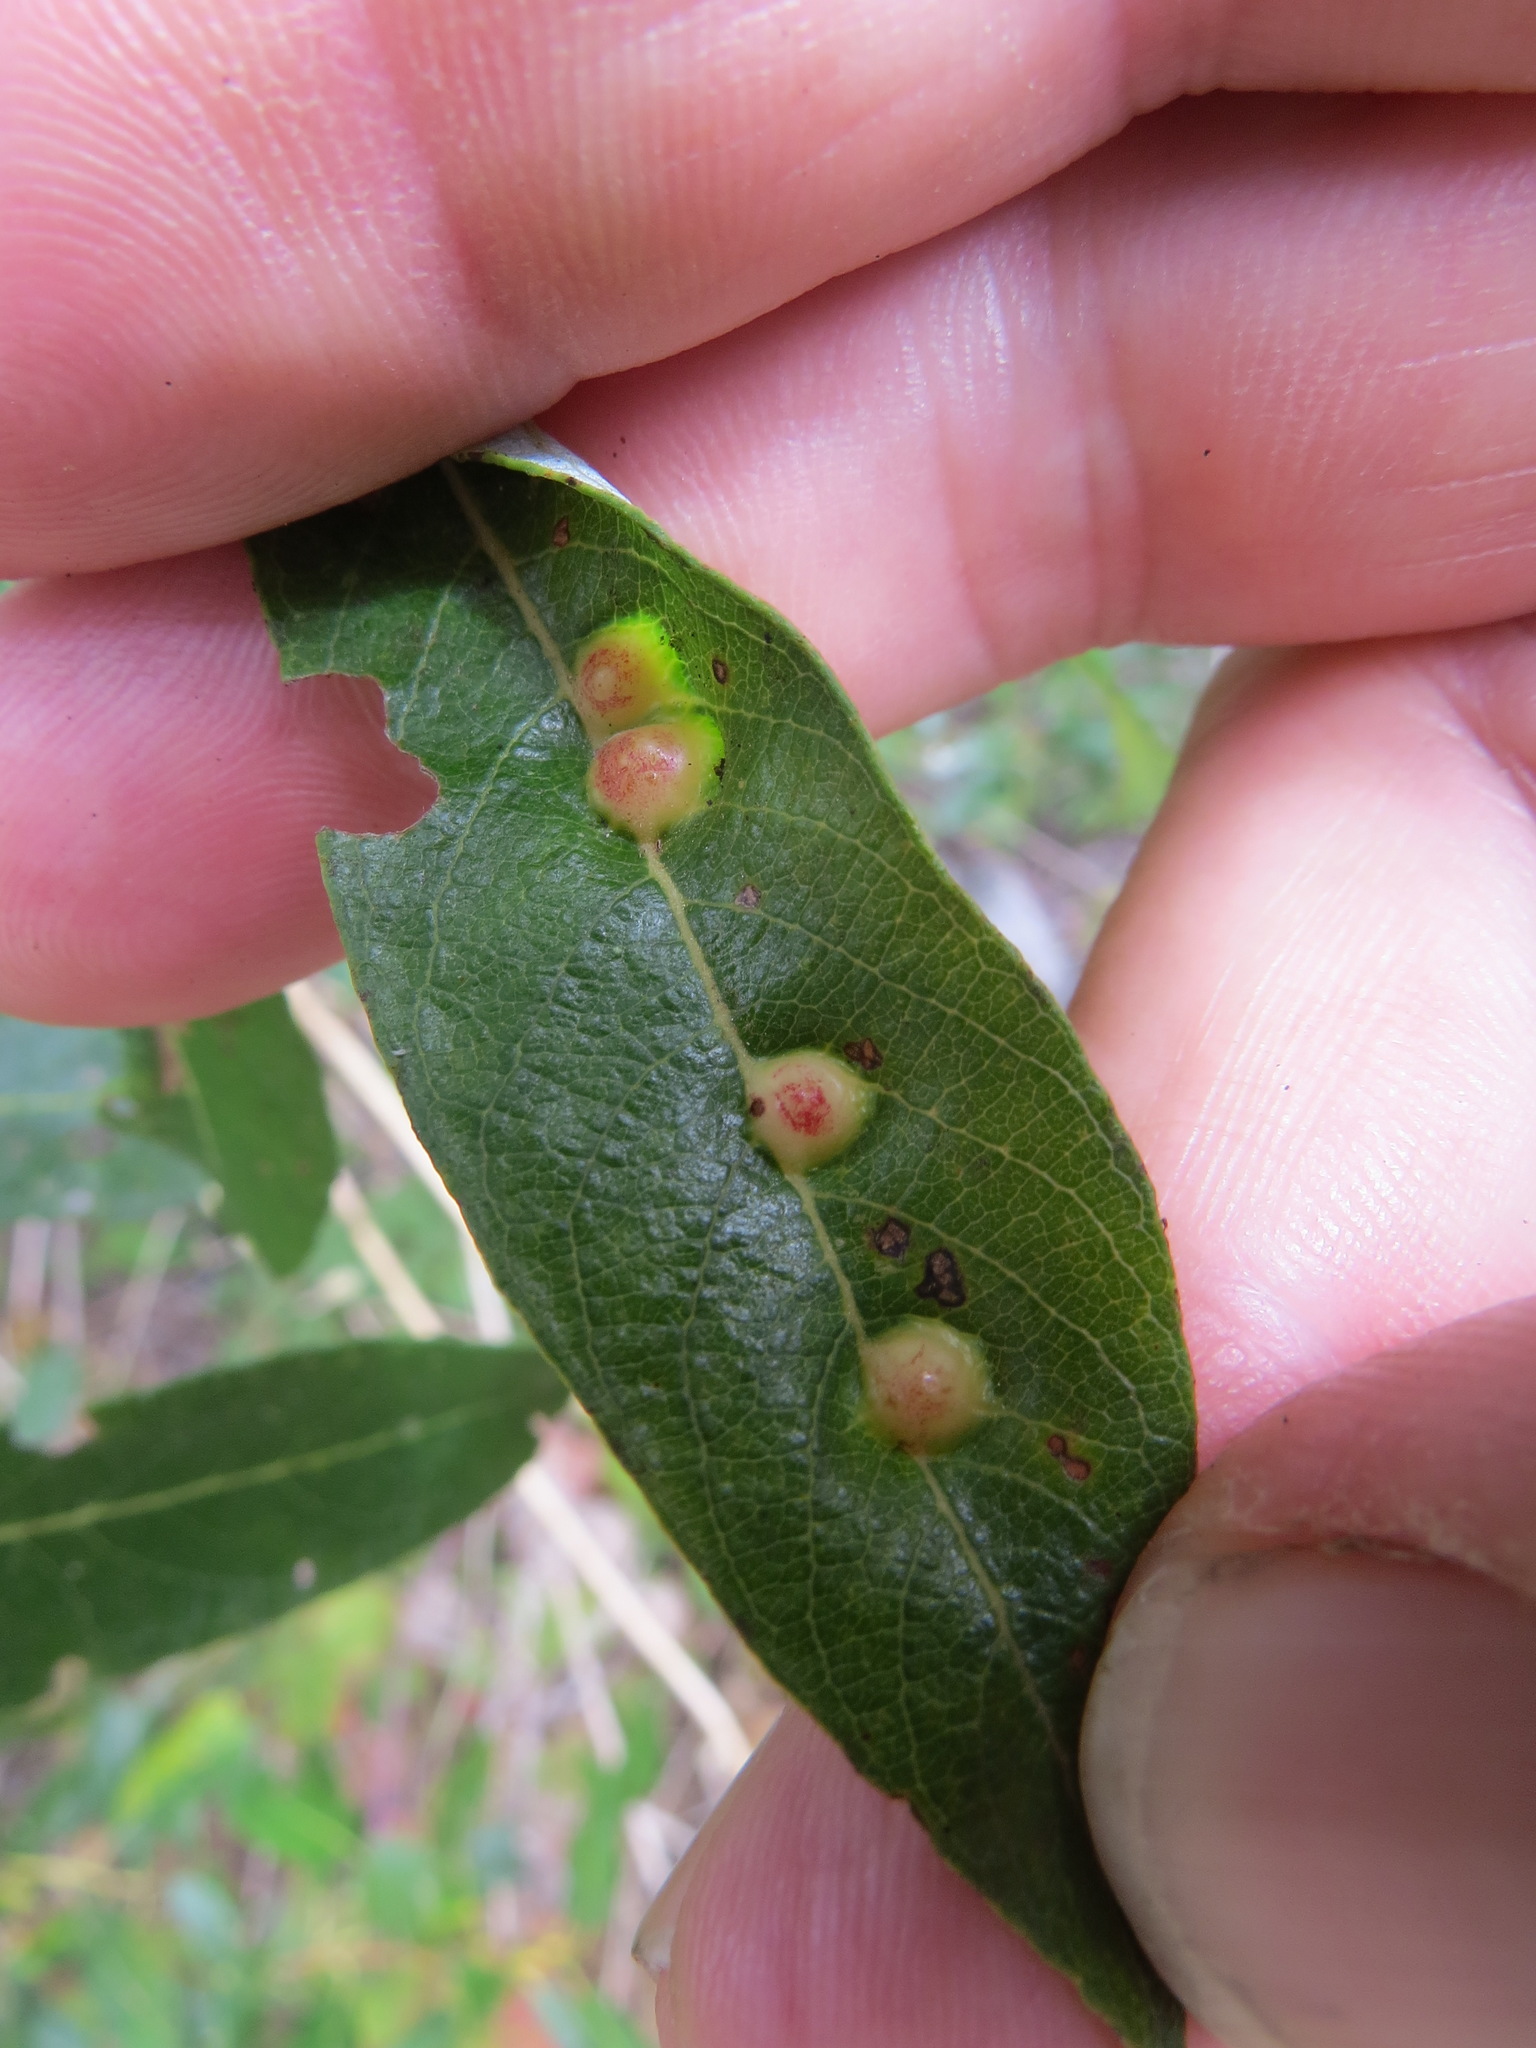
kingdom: Animalia
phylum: Arthropoda
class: Insecta
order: Diptera
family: Cecidomyiidae
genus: Iteomyia
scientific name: Iteomyia
